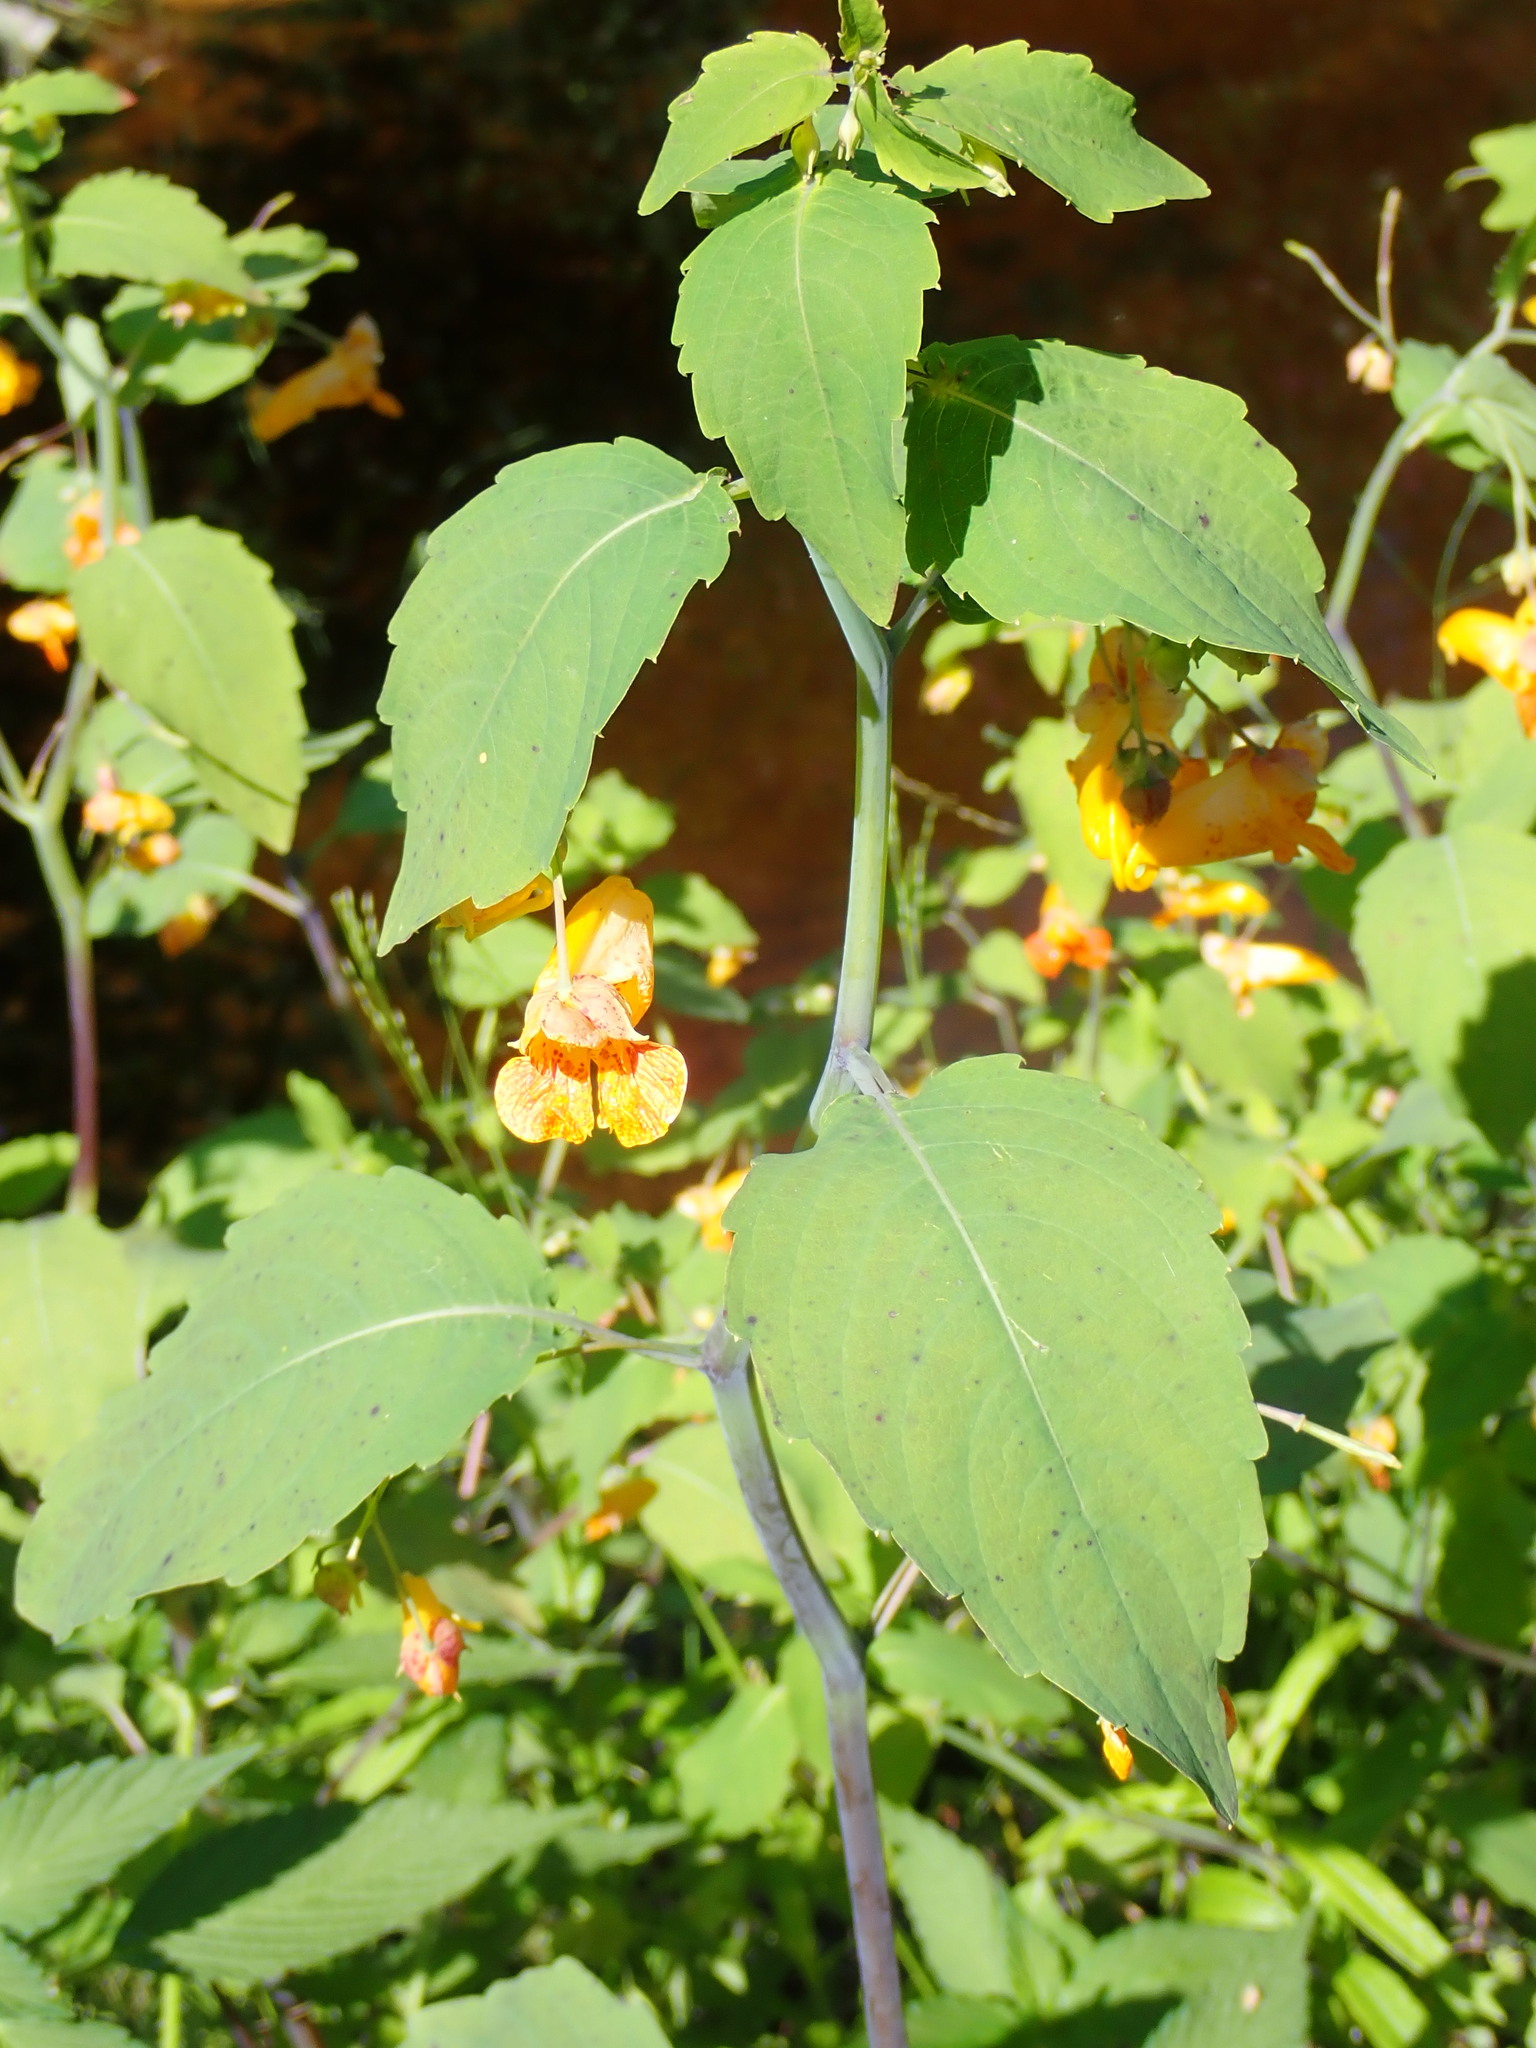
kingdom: Plantae
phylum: Tracheophyta
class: Magnoliopsida
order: Ericales
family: Balsaminaceae
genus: Impatiens
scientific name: Impatiens capensis
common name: Orange balsam
